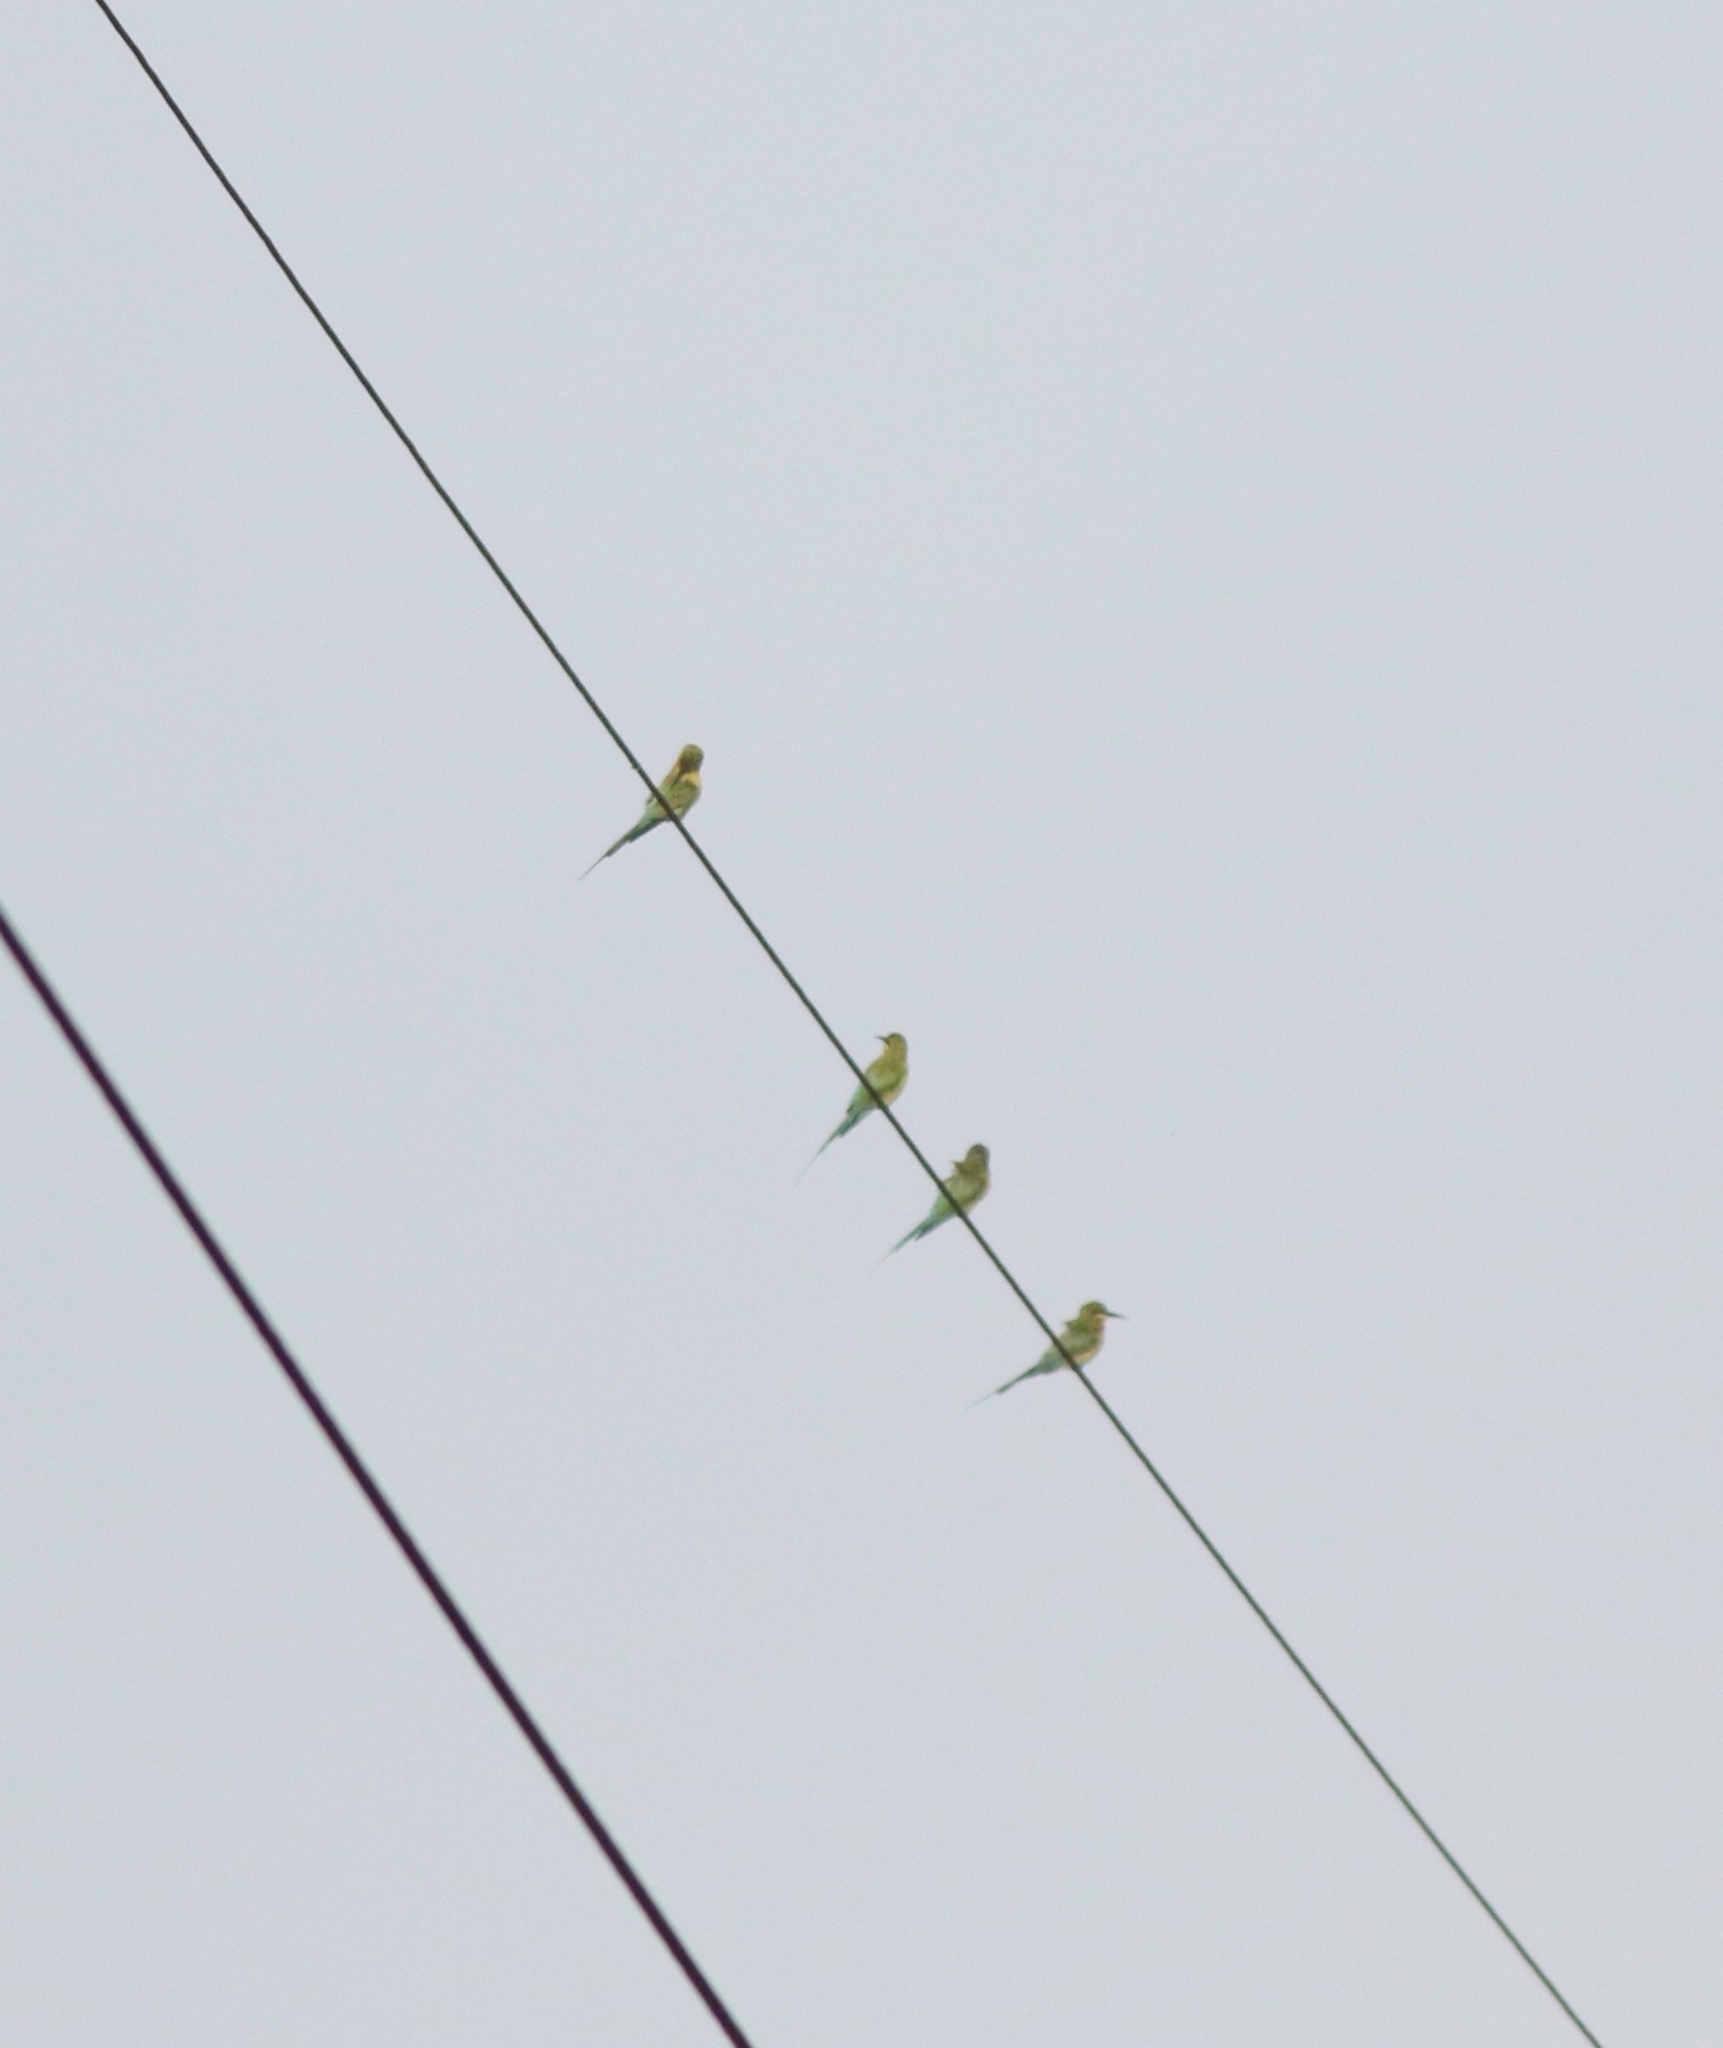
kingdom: Animalia
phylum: Chordata
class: Aves
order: Coraciiformes
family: Meropidae
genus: Merops
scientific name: Merops philippinus
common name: Blue-tailed bee-eater
